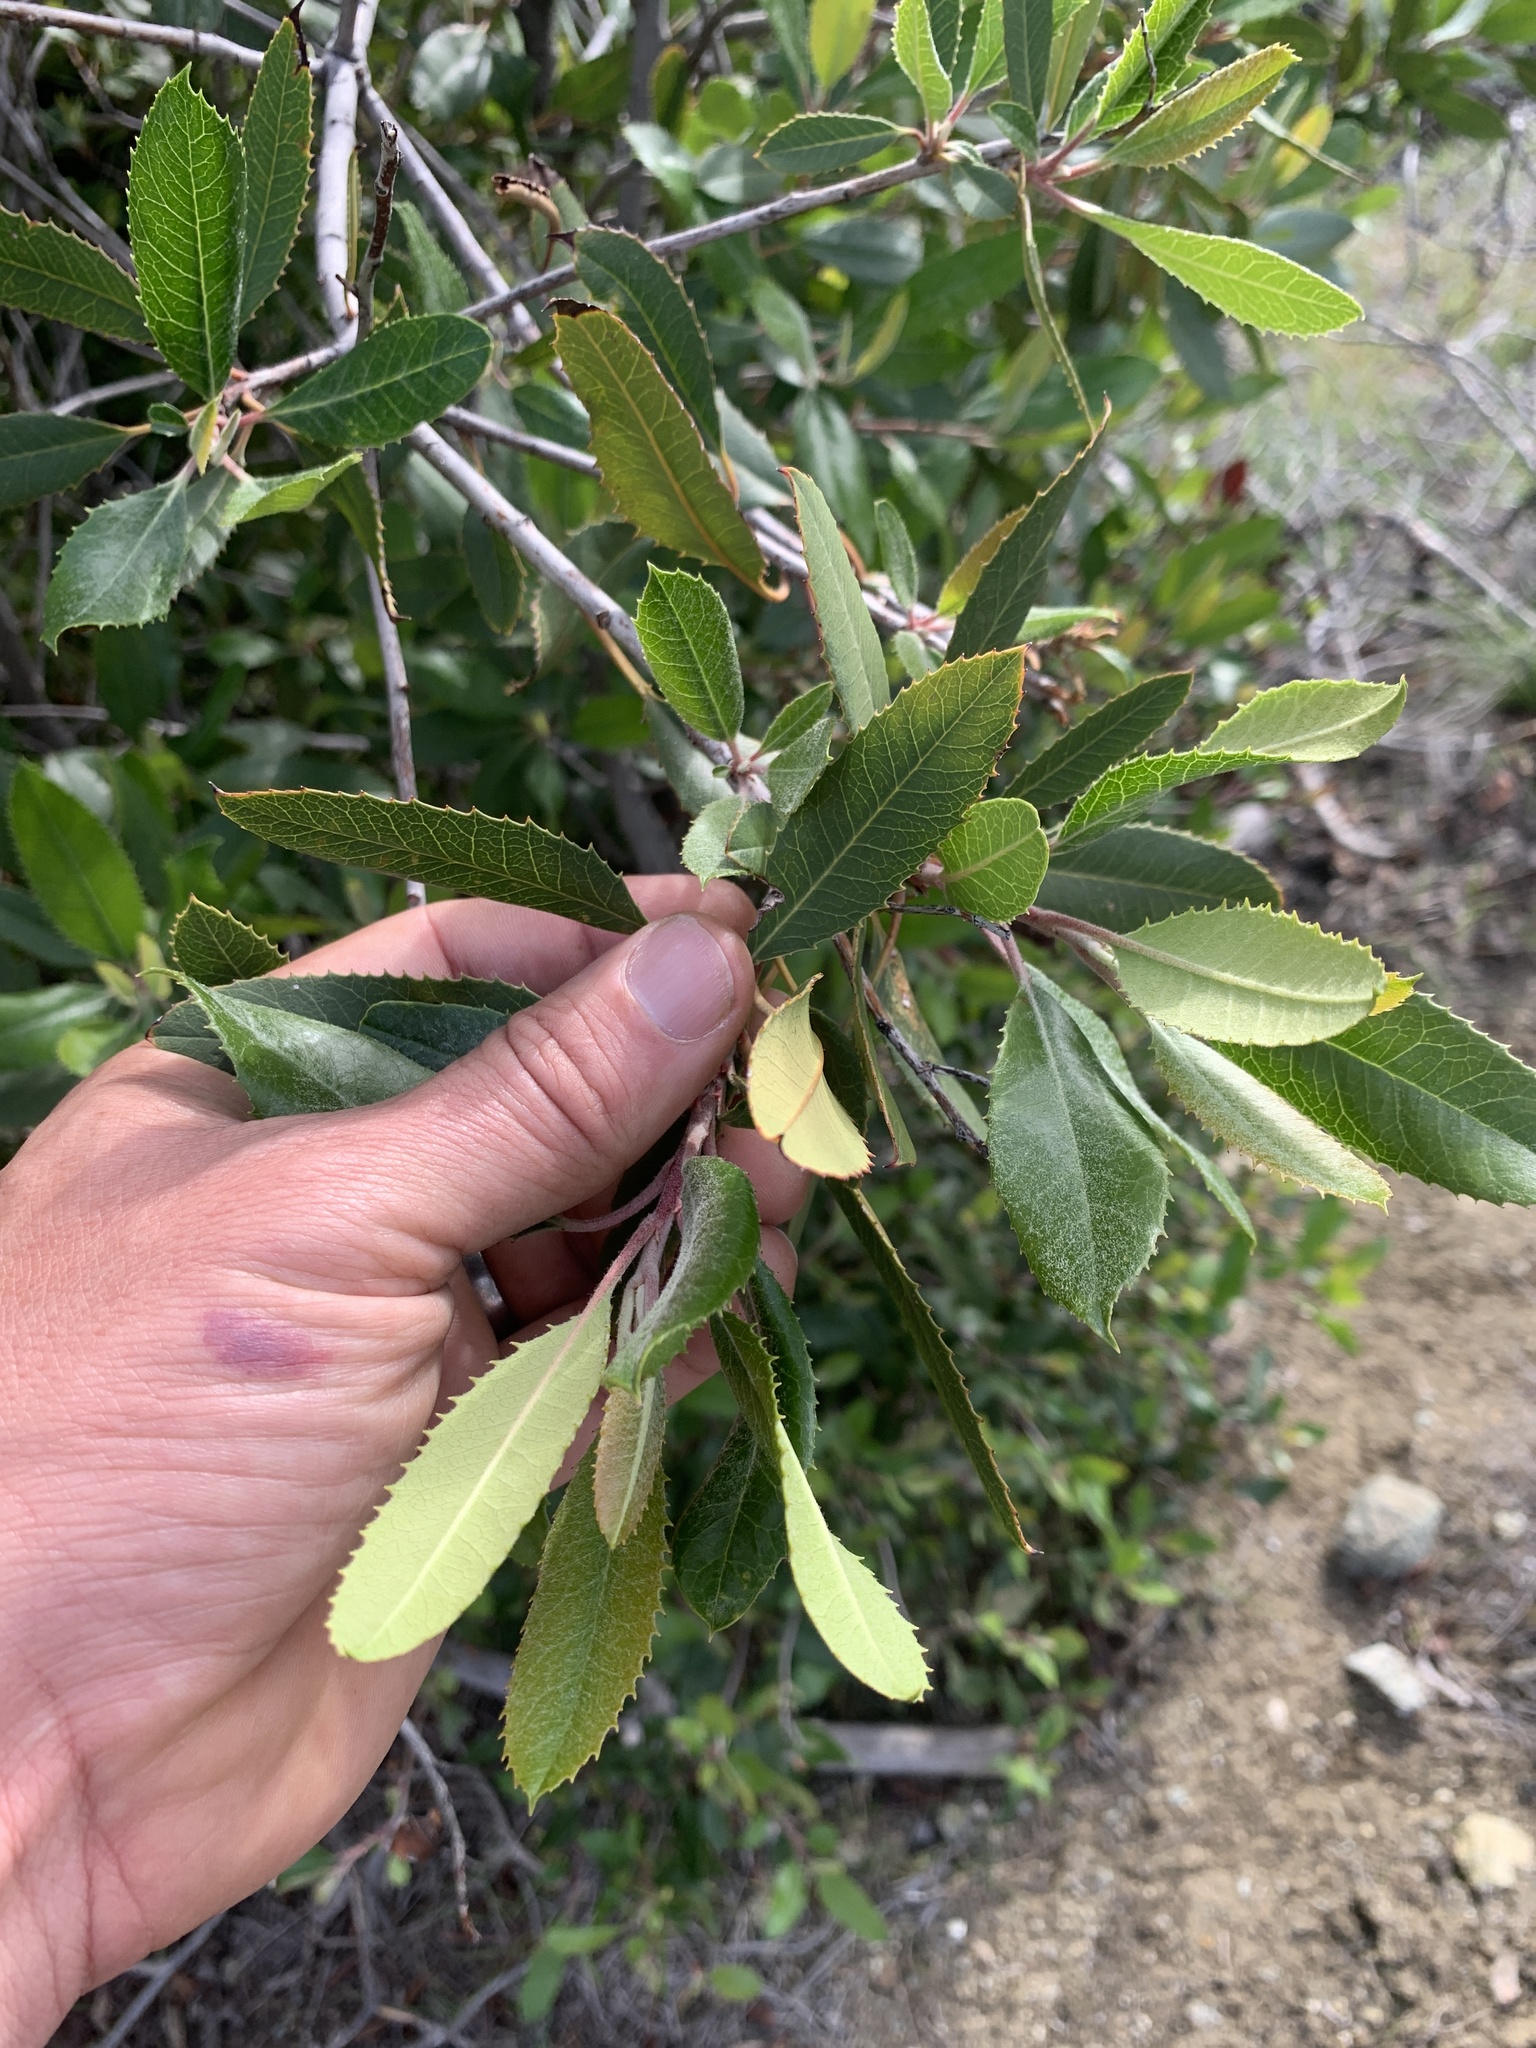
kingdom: Plantae
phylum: Tracheophyta
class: Magnoliopsida
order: Rosales
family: Rosaceae
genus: Heteromeles
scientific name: Heteromeles arbutifolia
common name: California-holly
